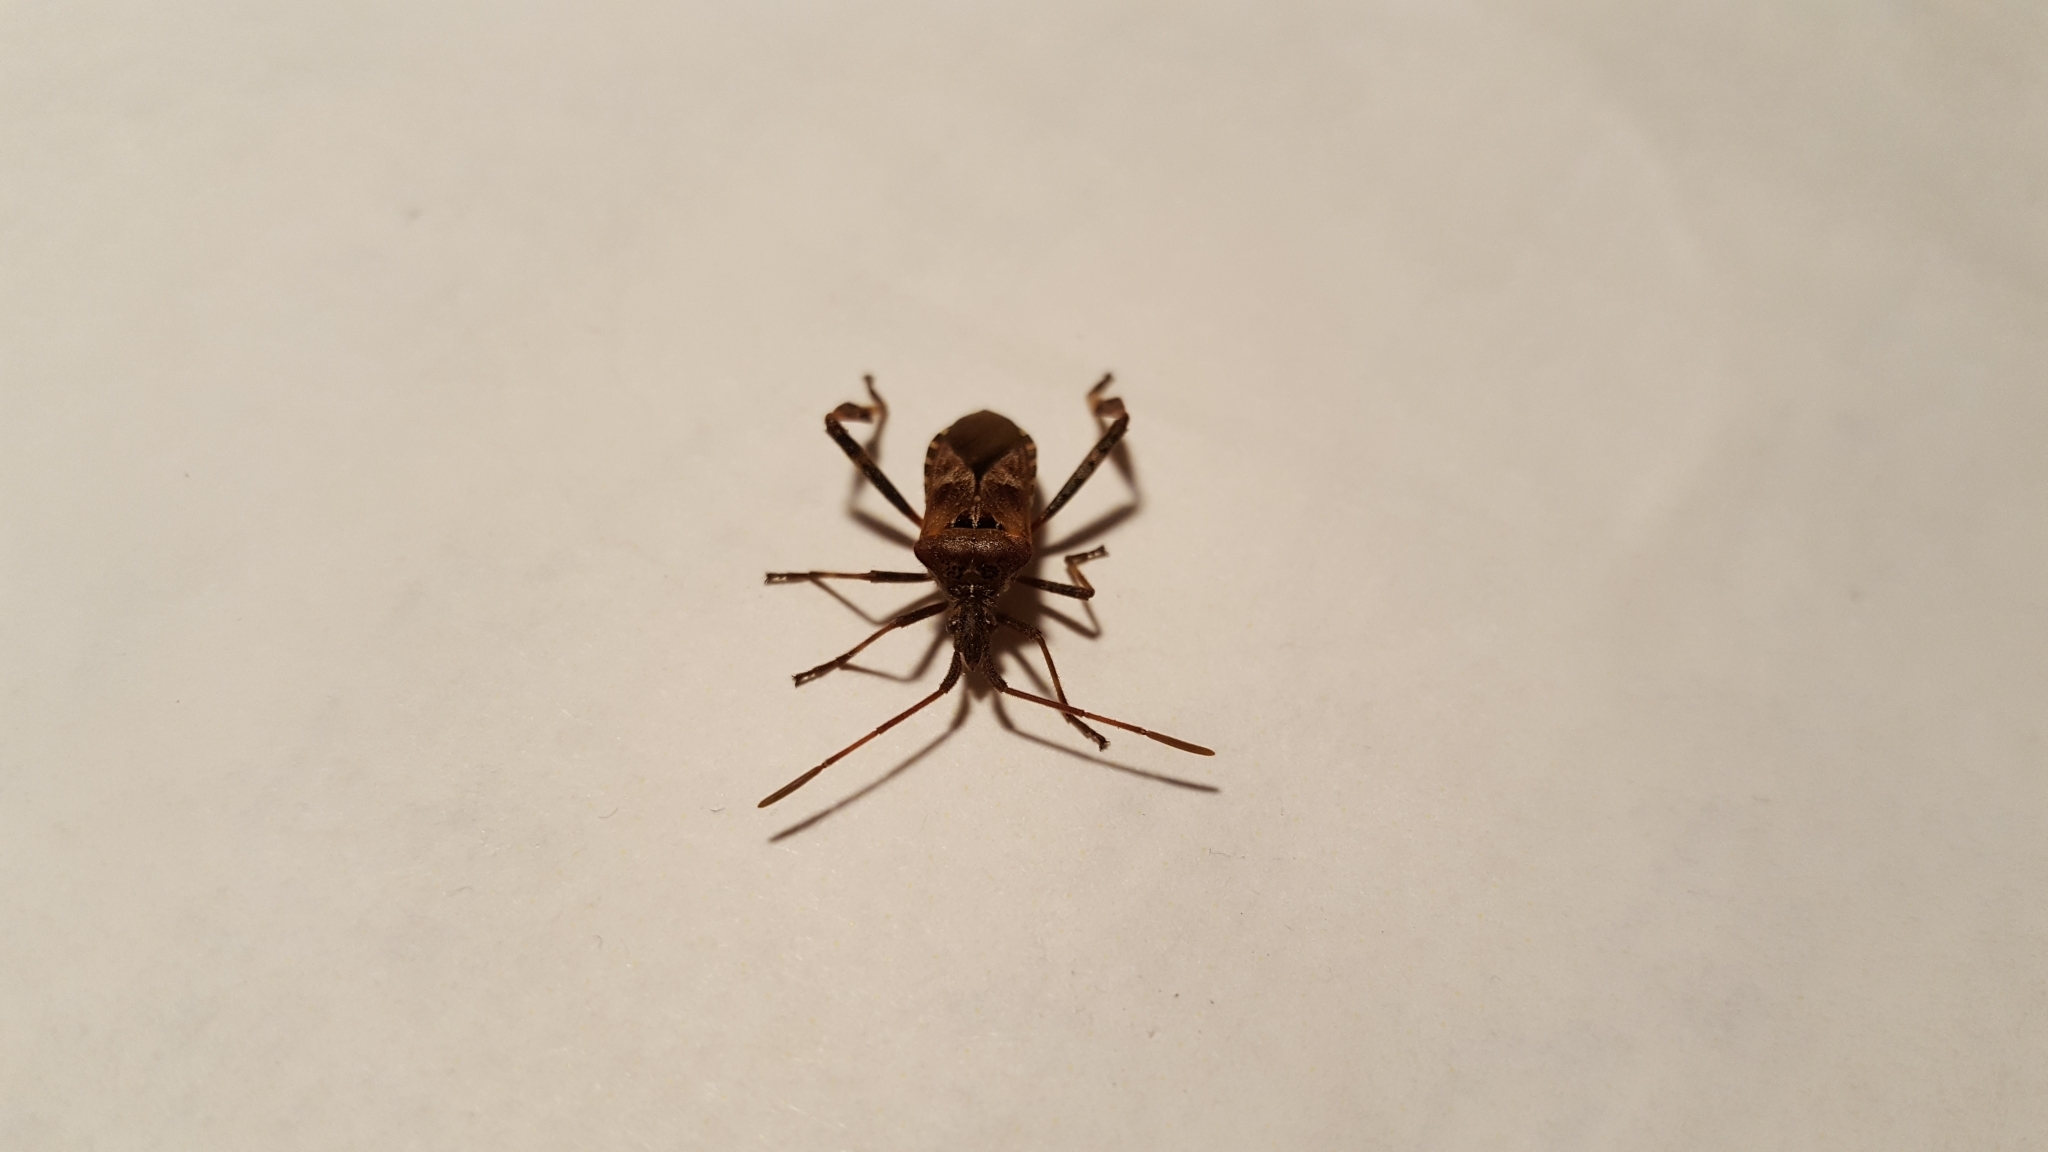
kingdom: Animalia
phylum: Arthropoda
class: Insecta
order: Hemiptera
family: Coreidae
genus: Leptoglossus
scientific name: Leptoglossus occidentalis
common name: Western conifer-seed bug
